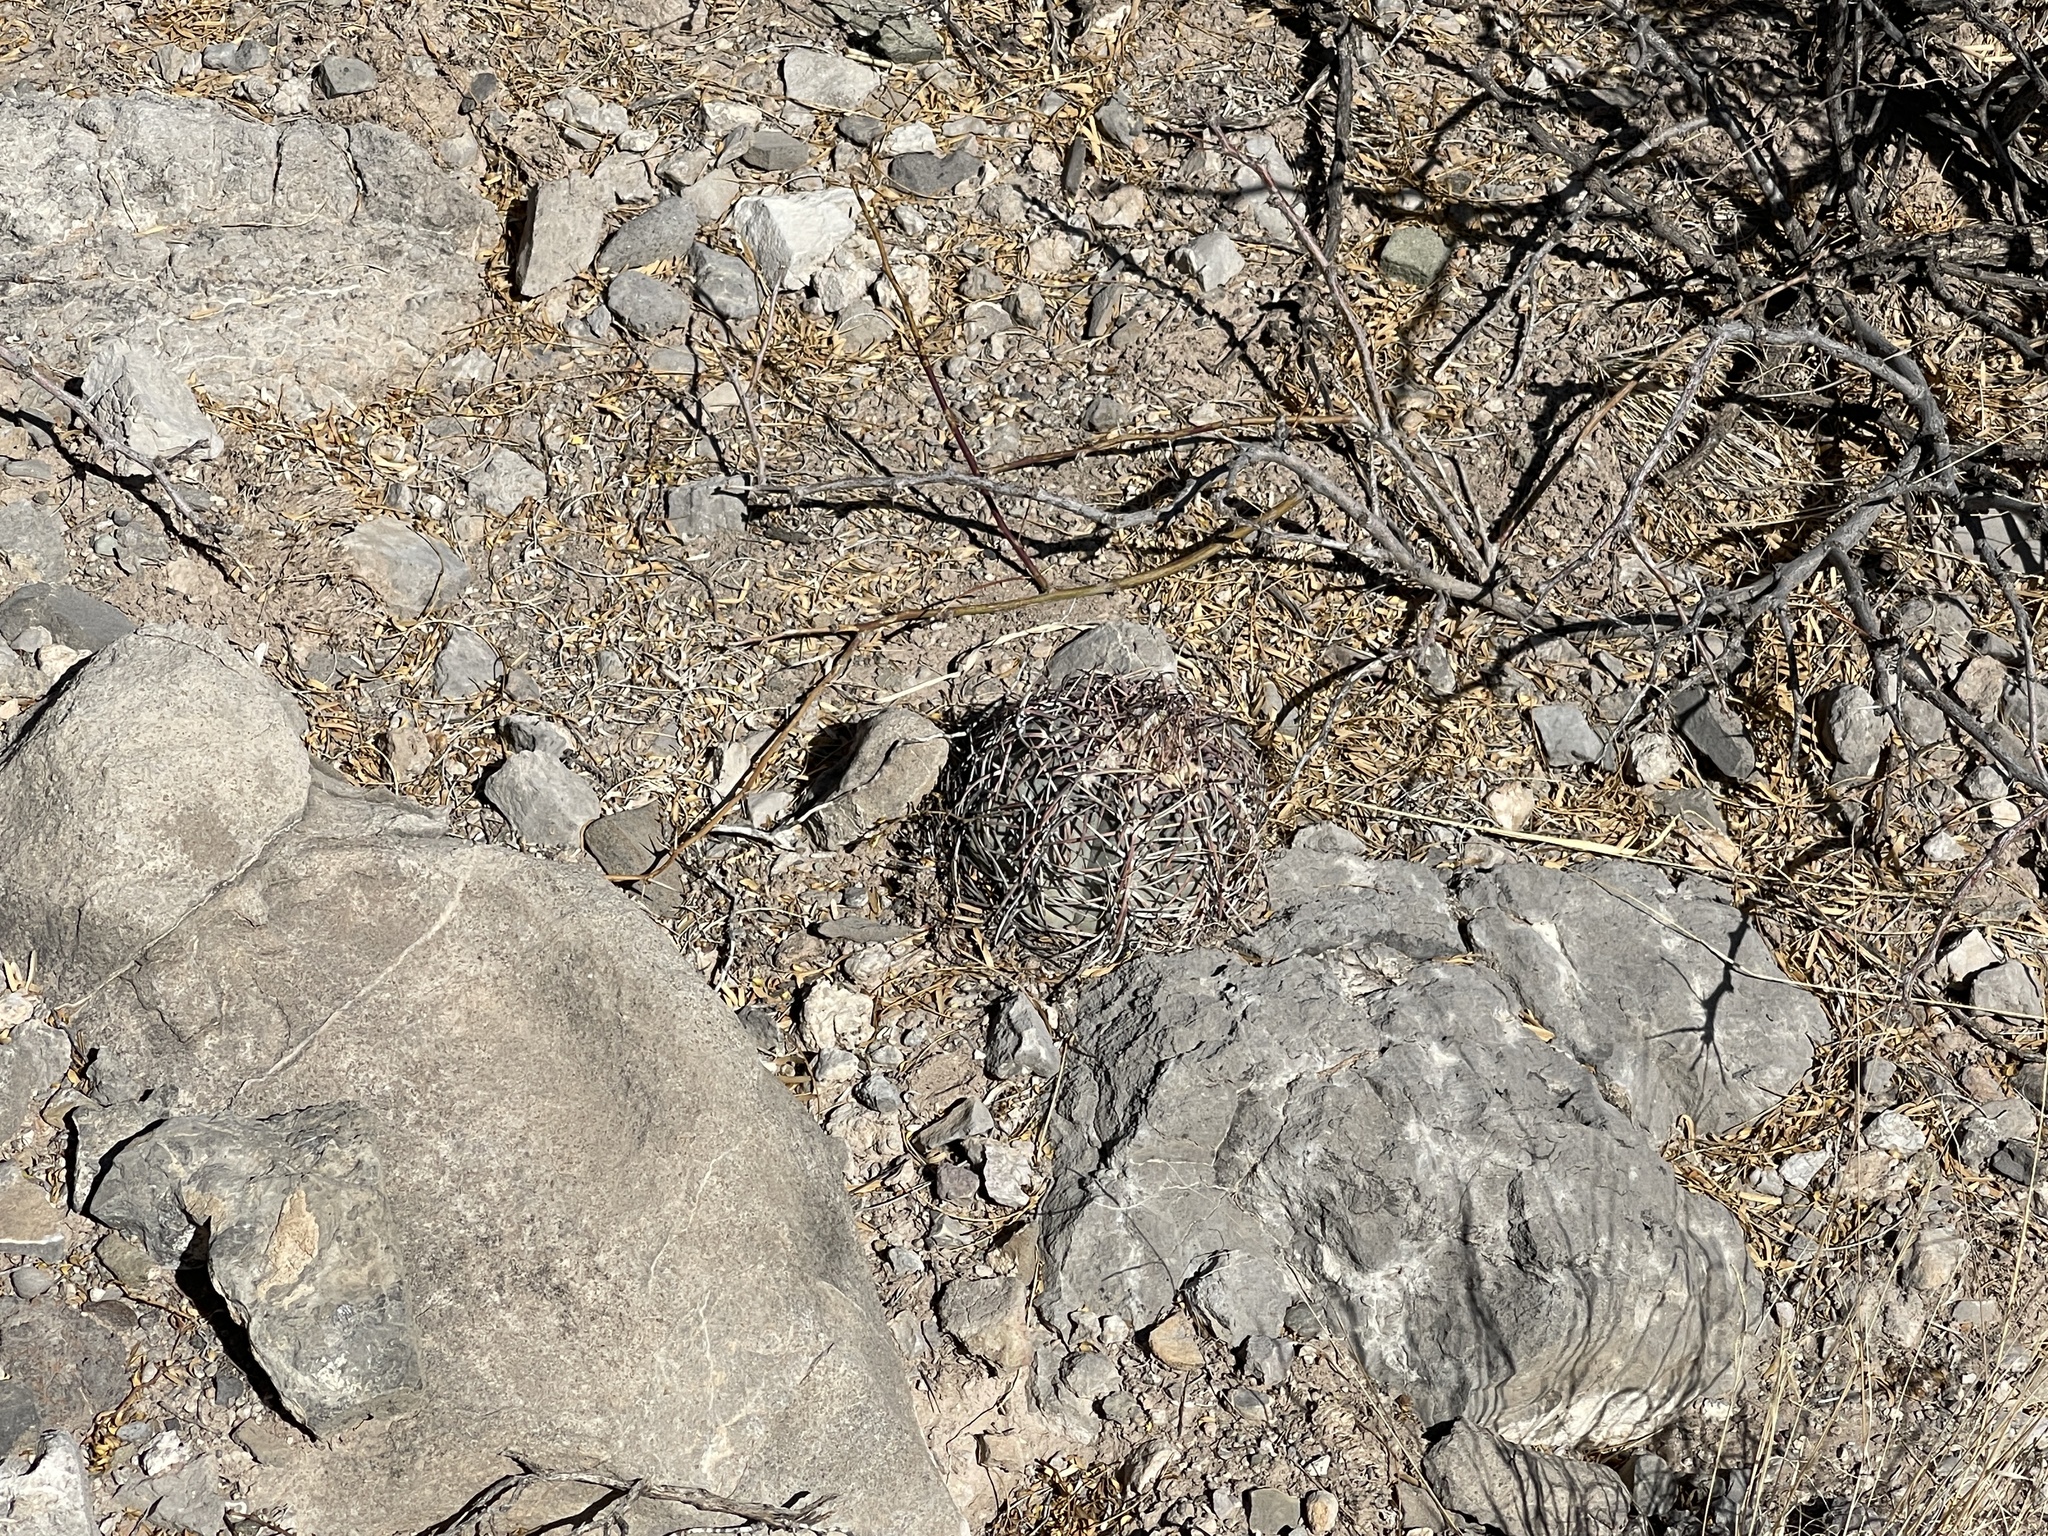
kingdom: Plantae
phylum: Tracheophyta
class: Magnoliopsida
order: Caryophyllales
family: Cactaceae
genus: Echinocactus
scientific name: Echinocactus horizonthalonius
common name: Devilshead
